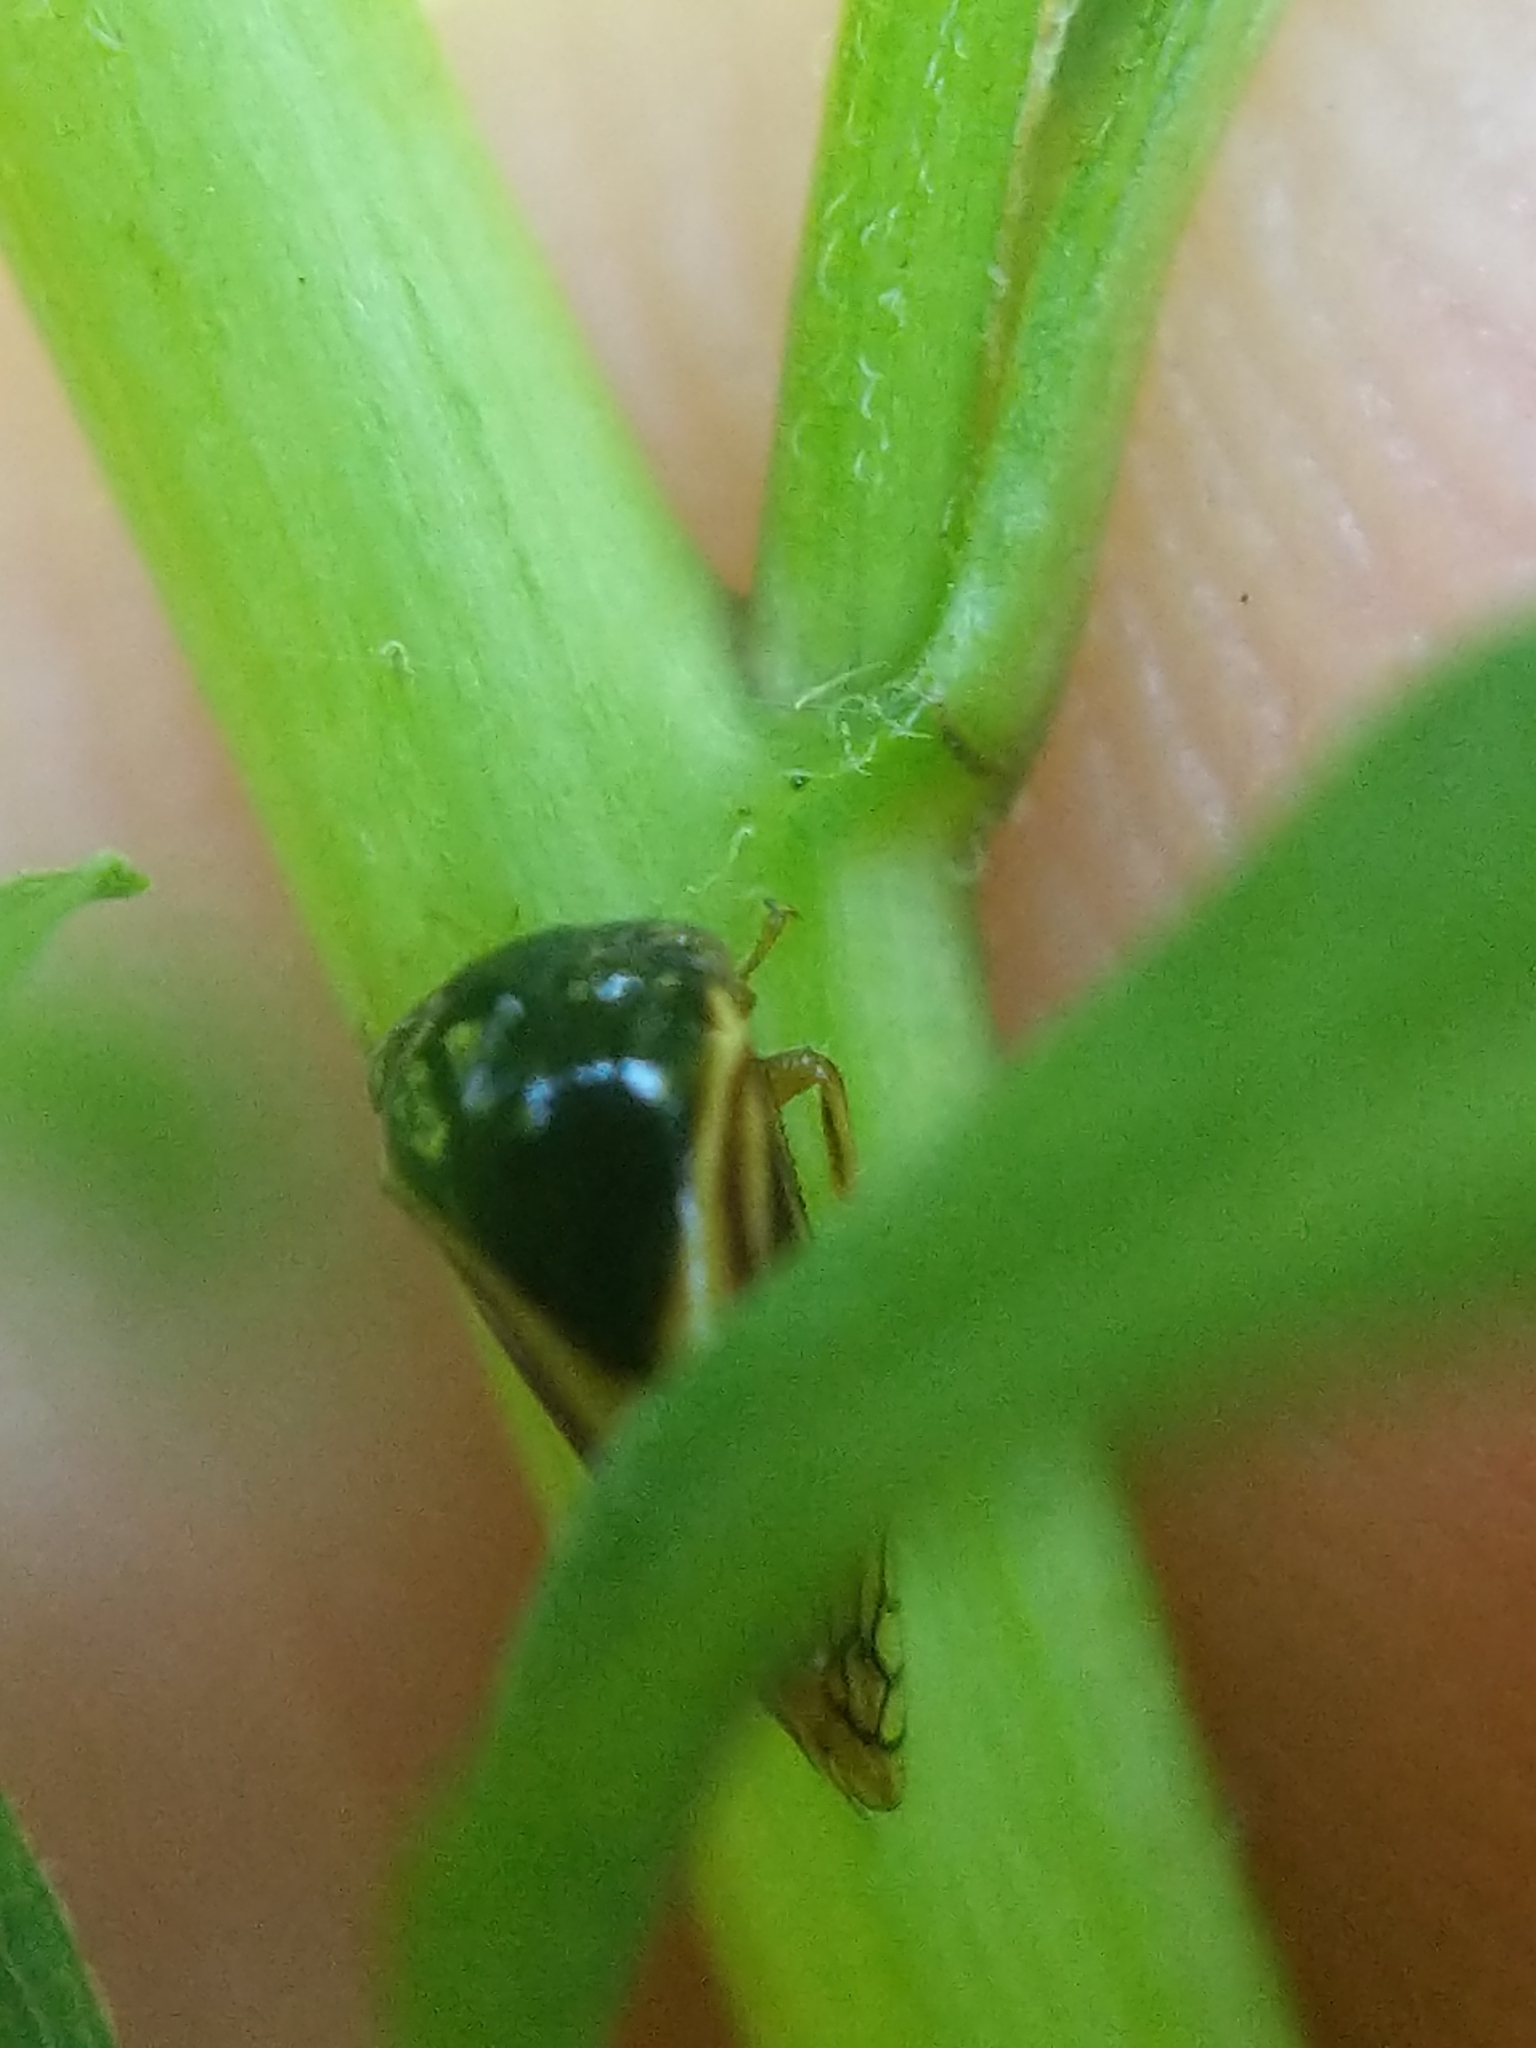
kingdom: Animalia
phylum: Arthropoda
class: Insecta
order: Hemiptera
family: Membracidae
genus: Acutalis
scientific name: Acutalis tartarea
